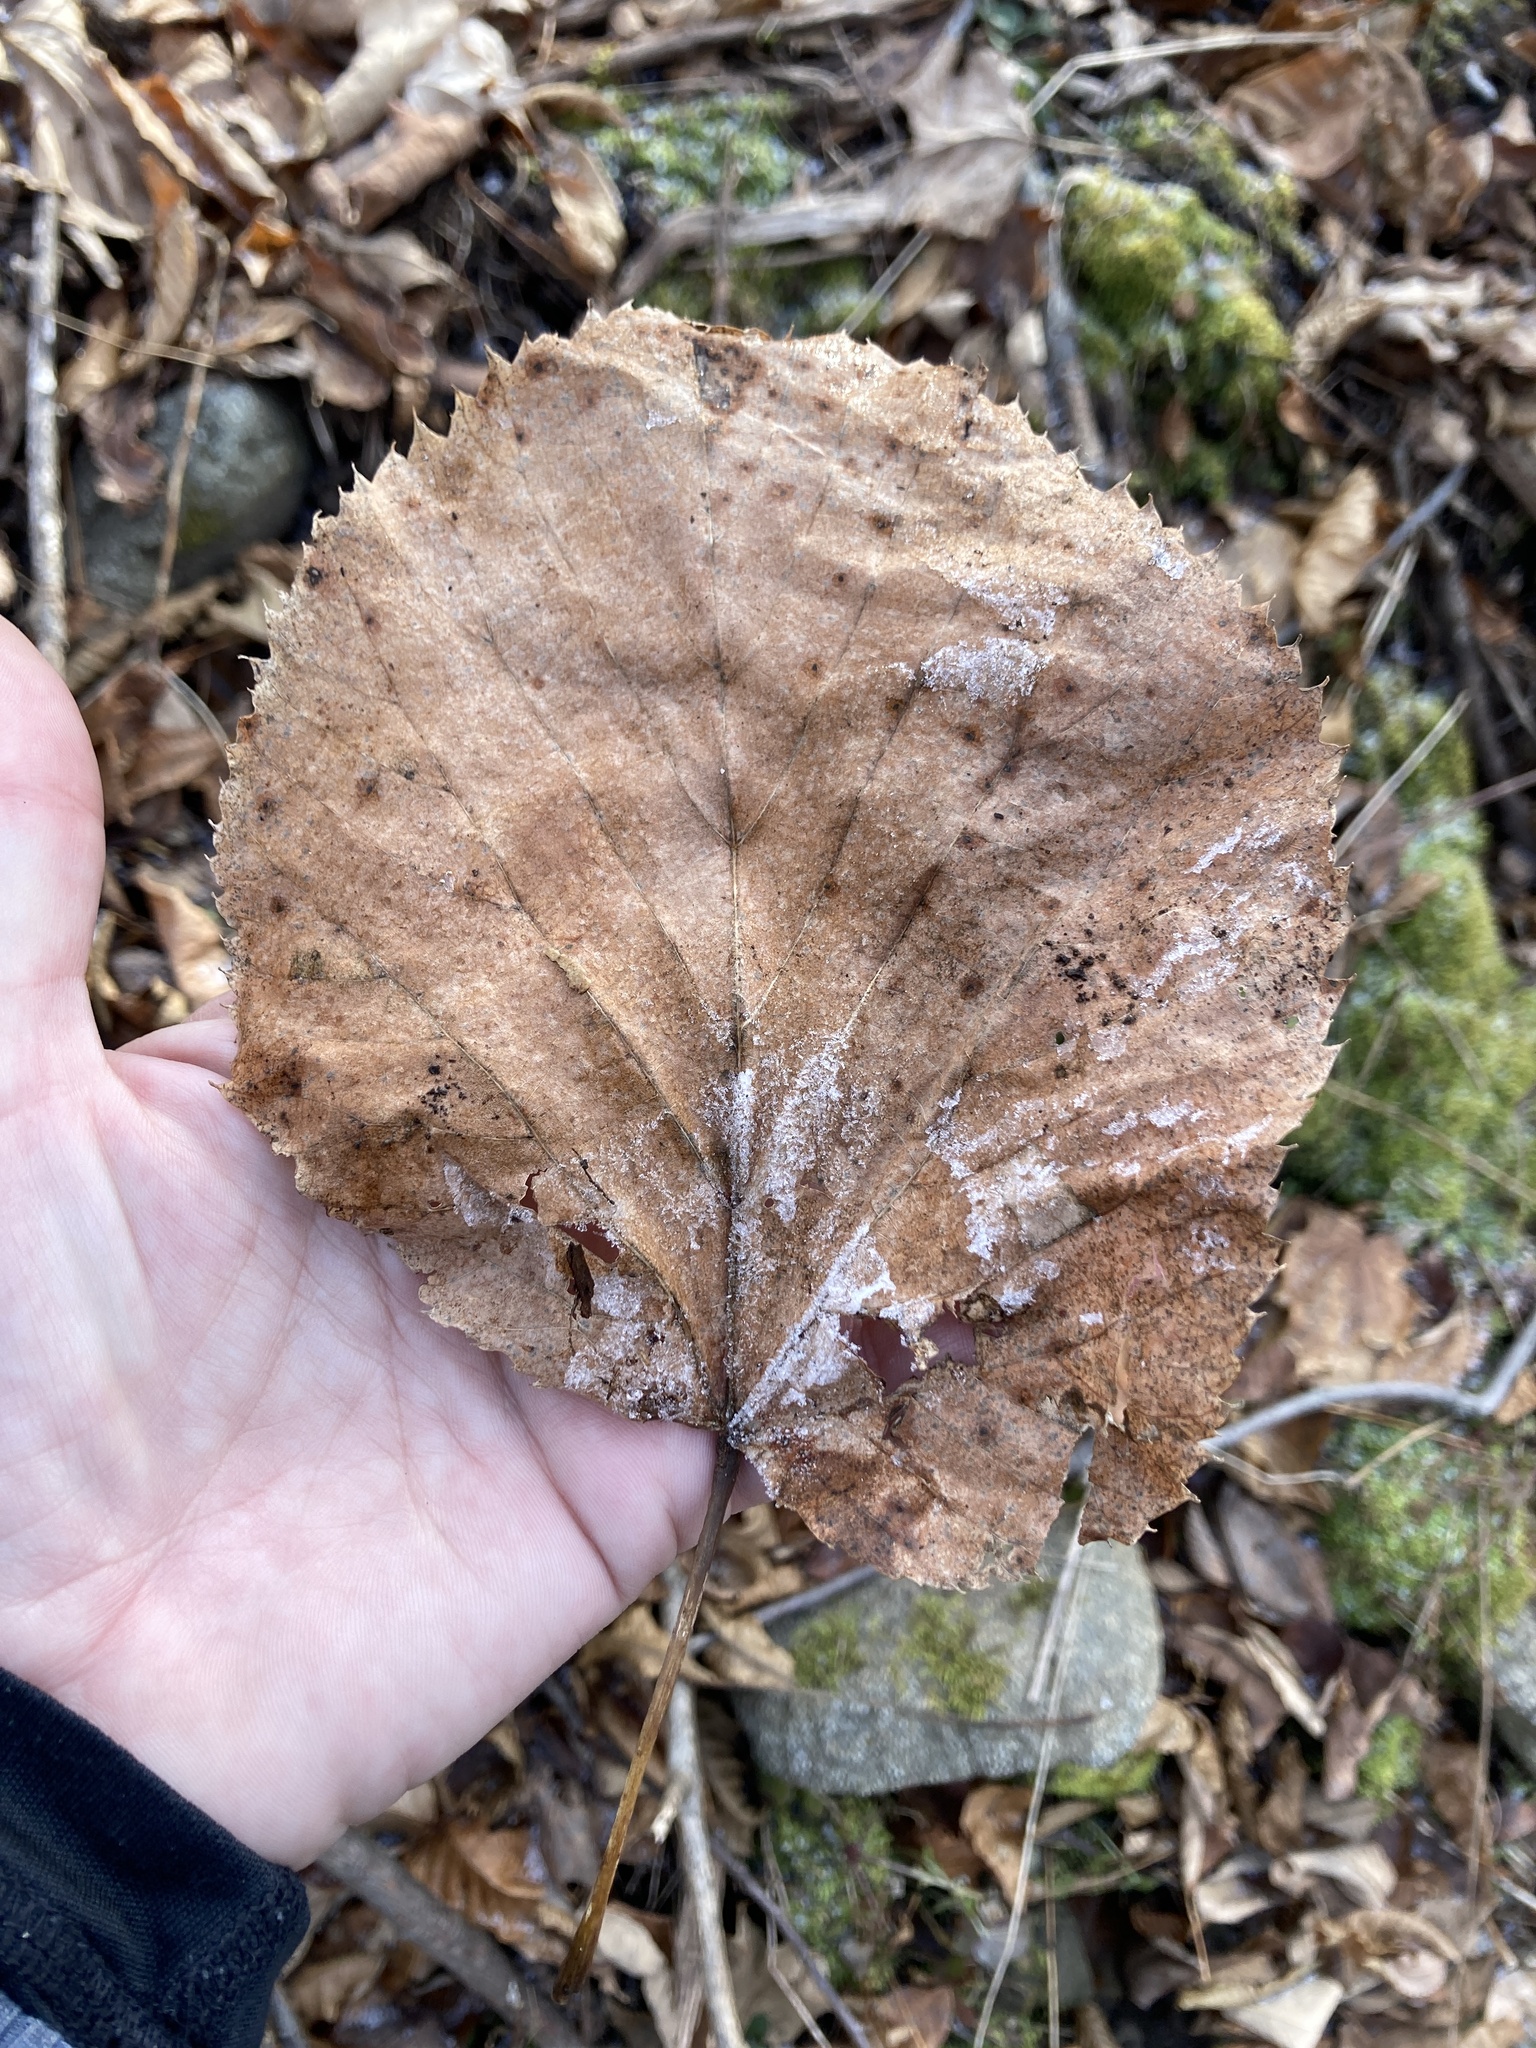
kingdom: Plantae
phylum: Tracheophyta
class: Magnoliopsida
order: Malvales
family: Malvaceae
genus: Tilia
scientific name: Tilia americana
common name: Basswood
